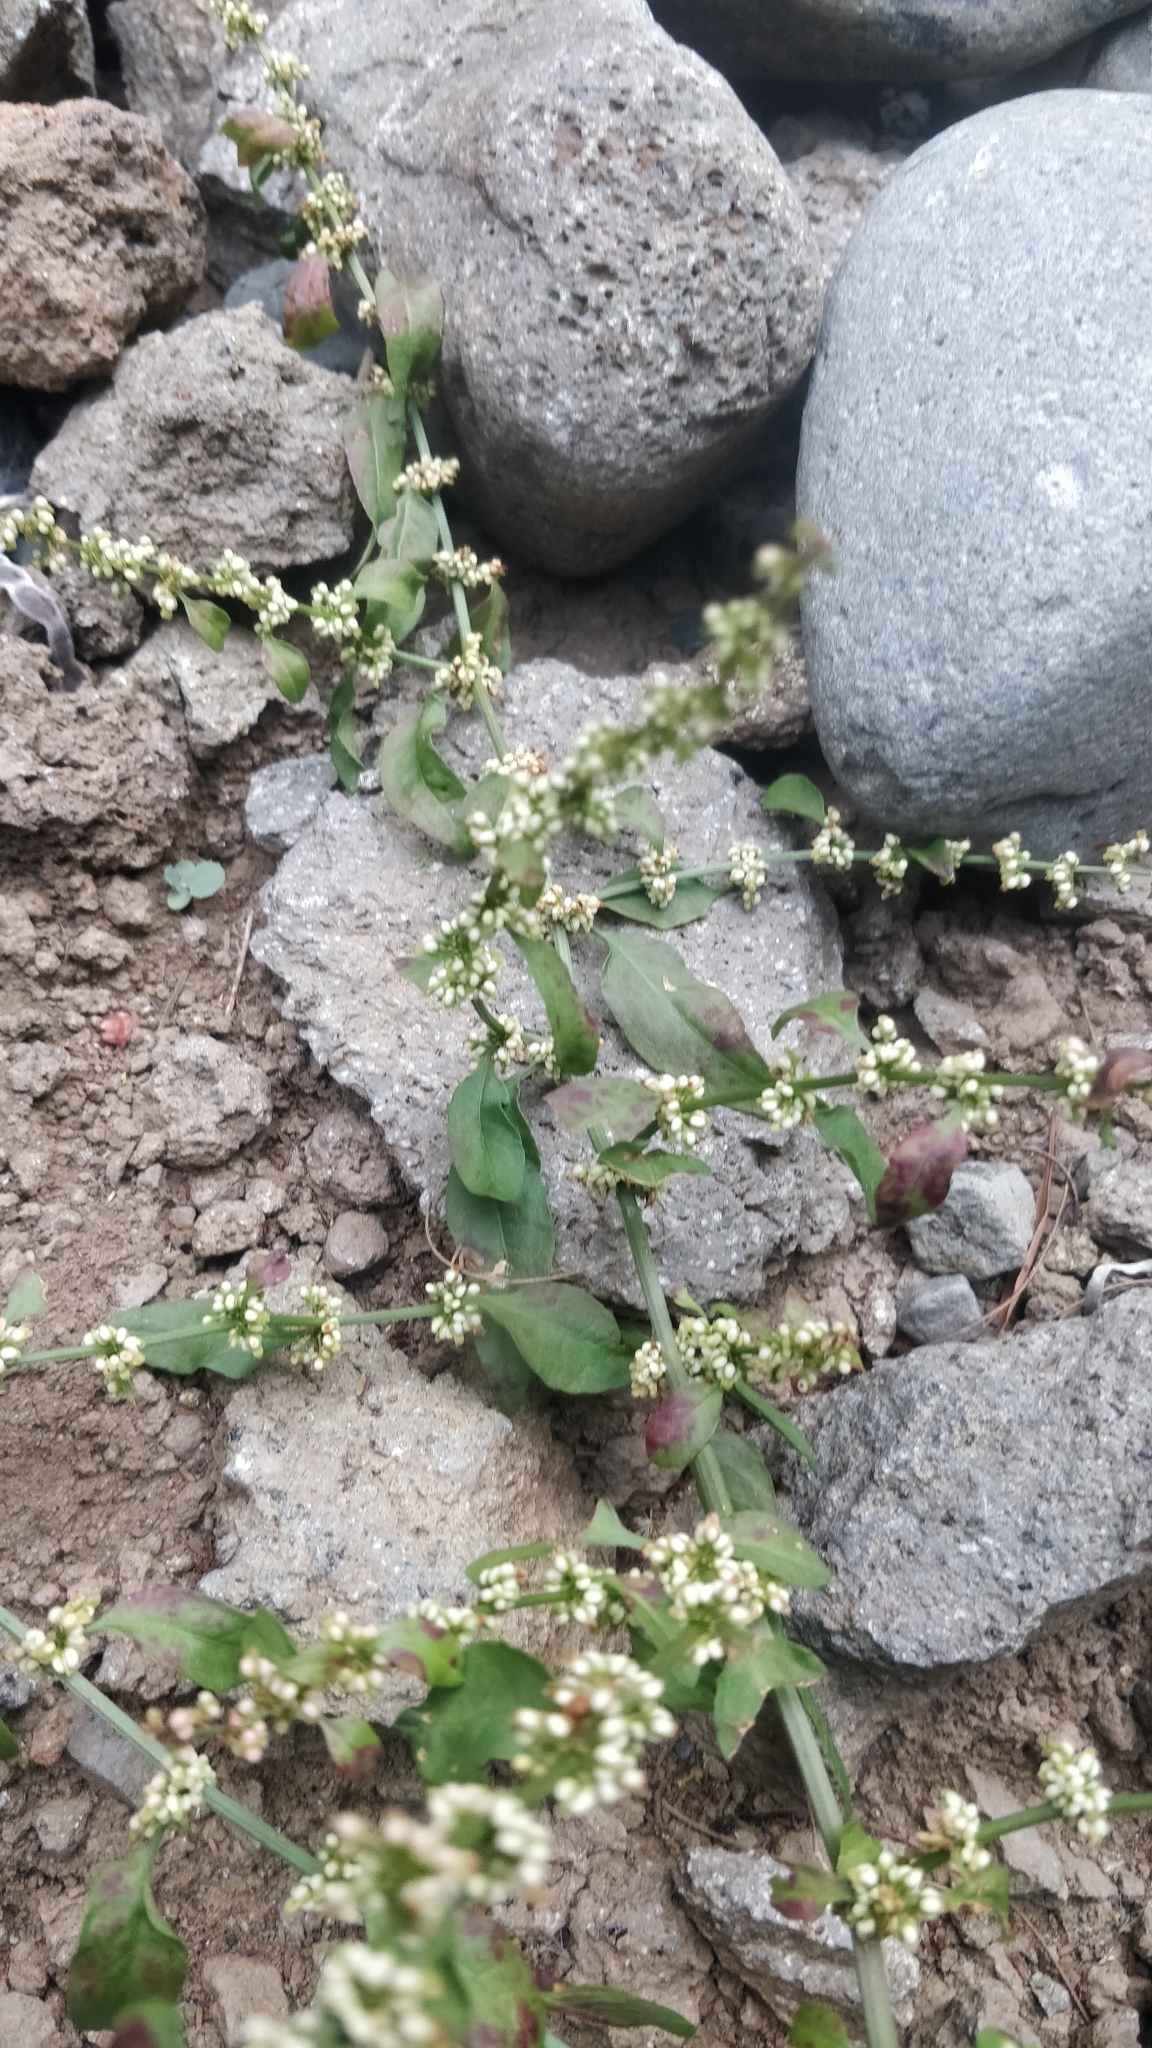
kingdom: Plantae
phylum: Tracheophyta
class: Magnoliopsida
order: Caryophyllales
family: Polygonaceae
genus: Rumex
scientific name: Rumex conglomeratus
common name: Clustered dock
